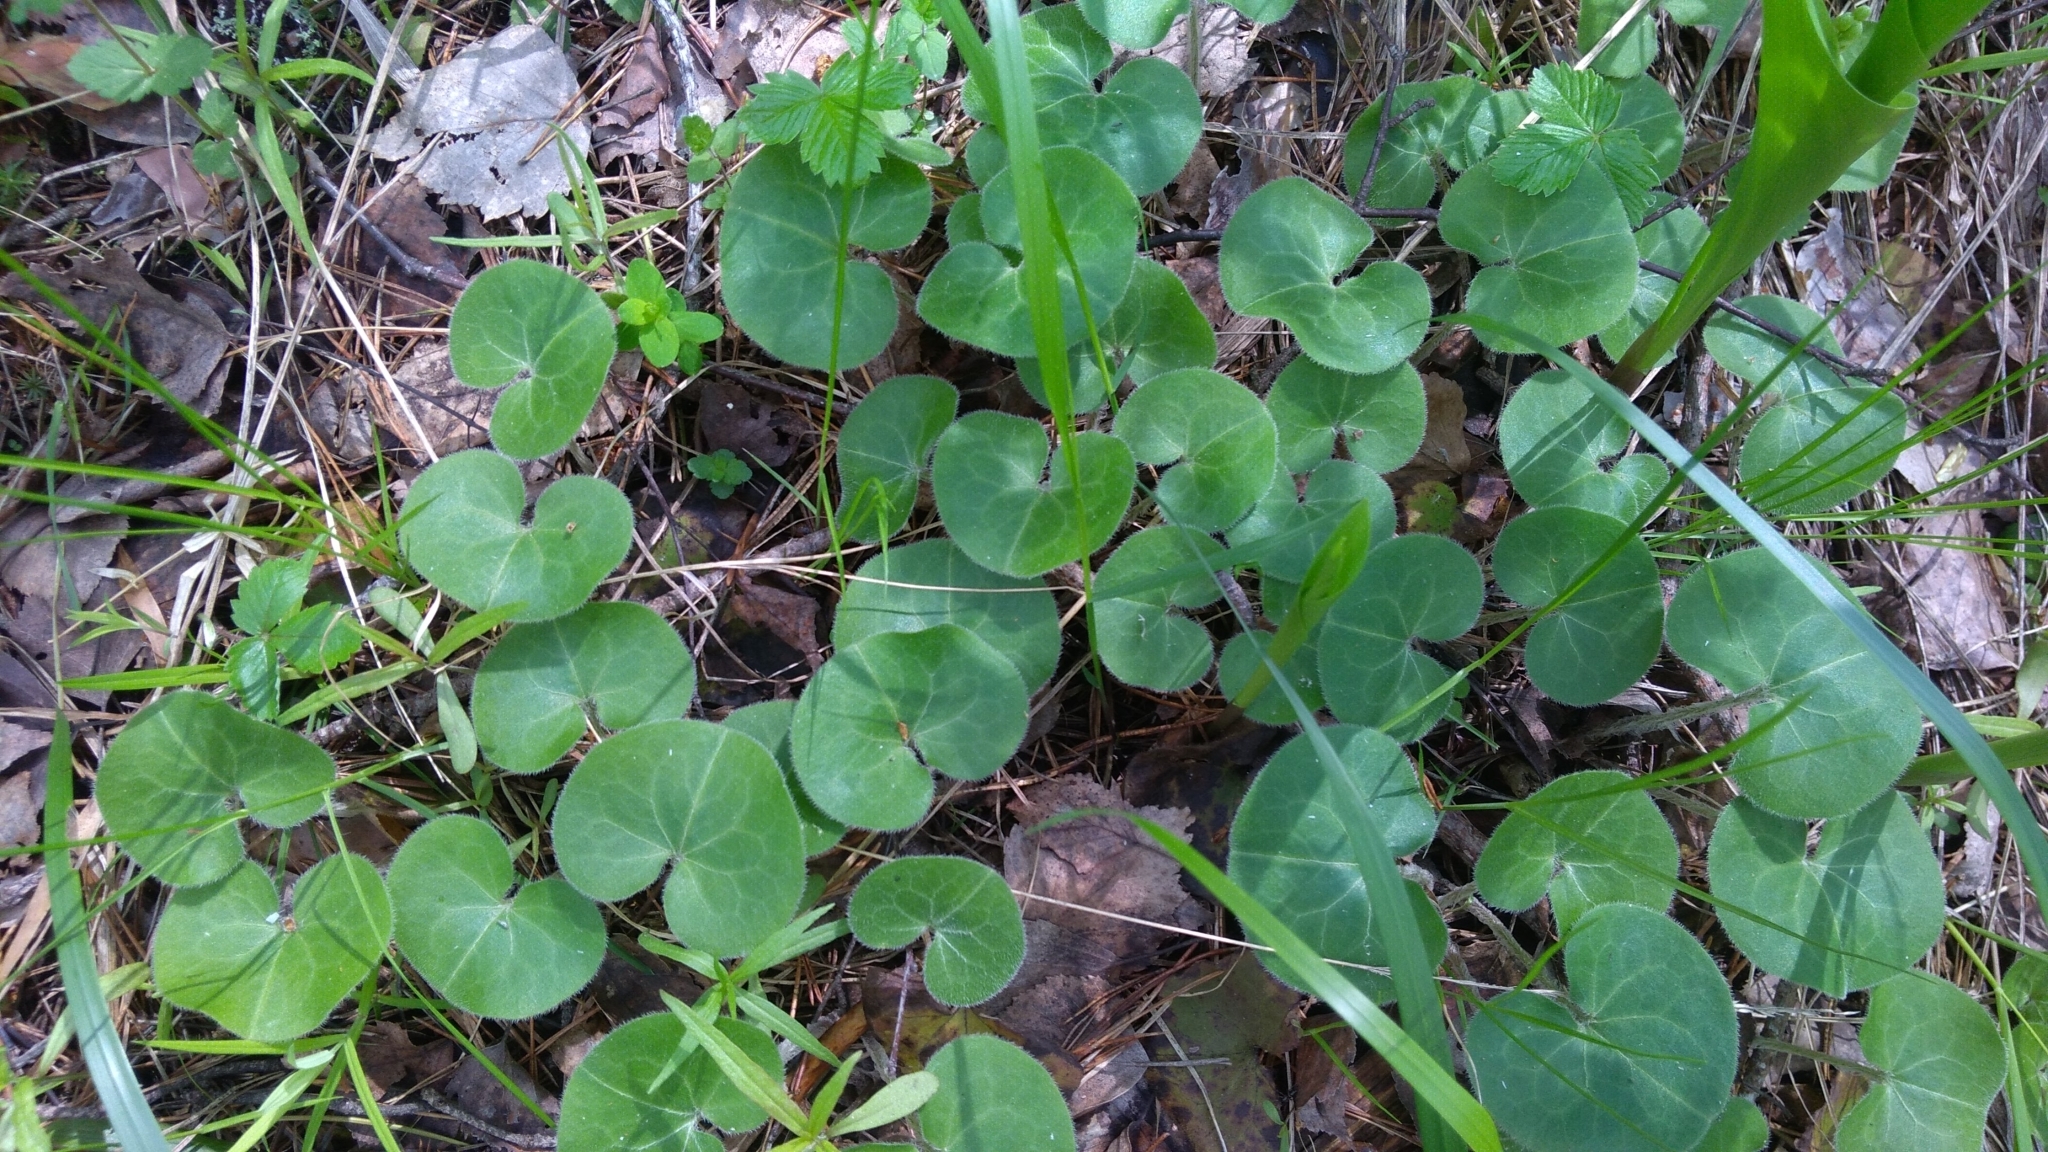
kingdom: Plantae
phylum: Tracheophyta
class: Magnoliopsida
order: Piperales
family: Aristolochiaceae
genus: Asarum
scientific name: Asarum europaeum
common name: Asarabacca
